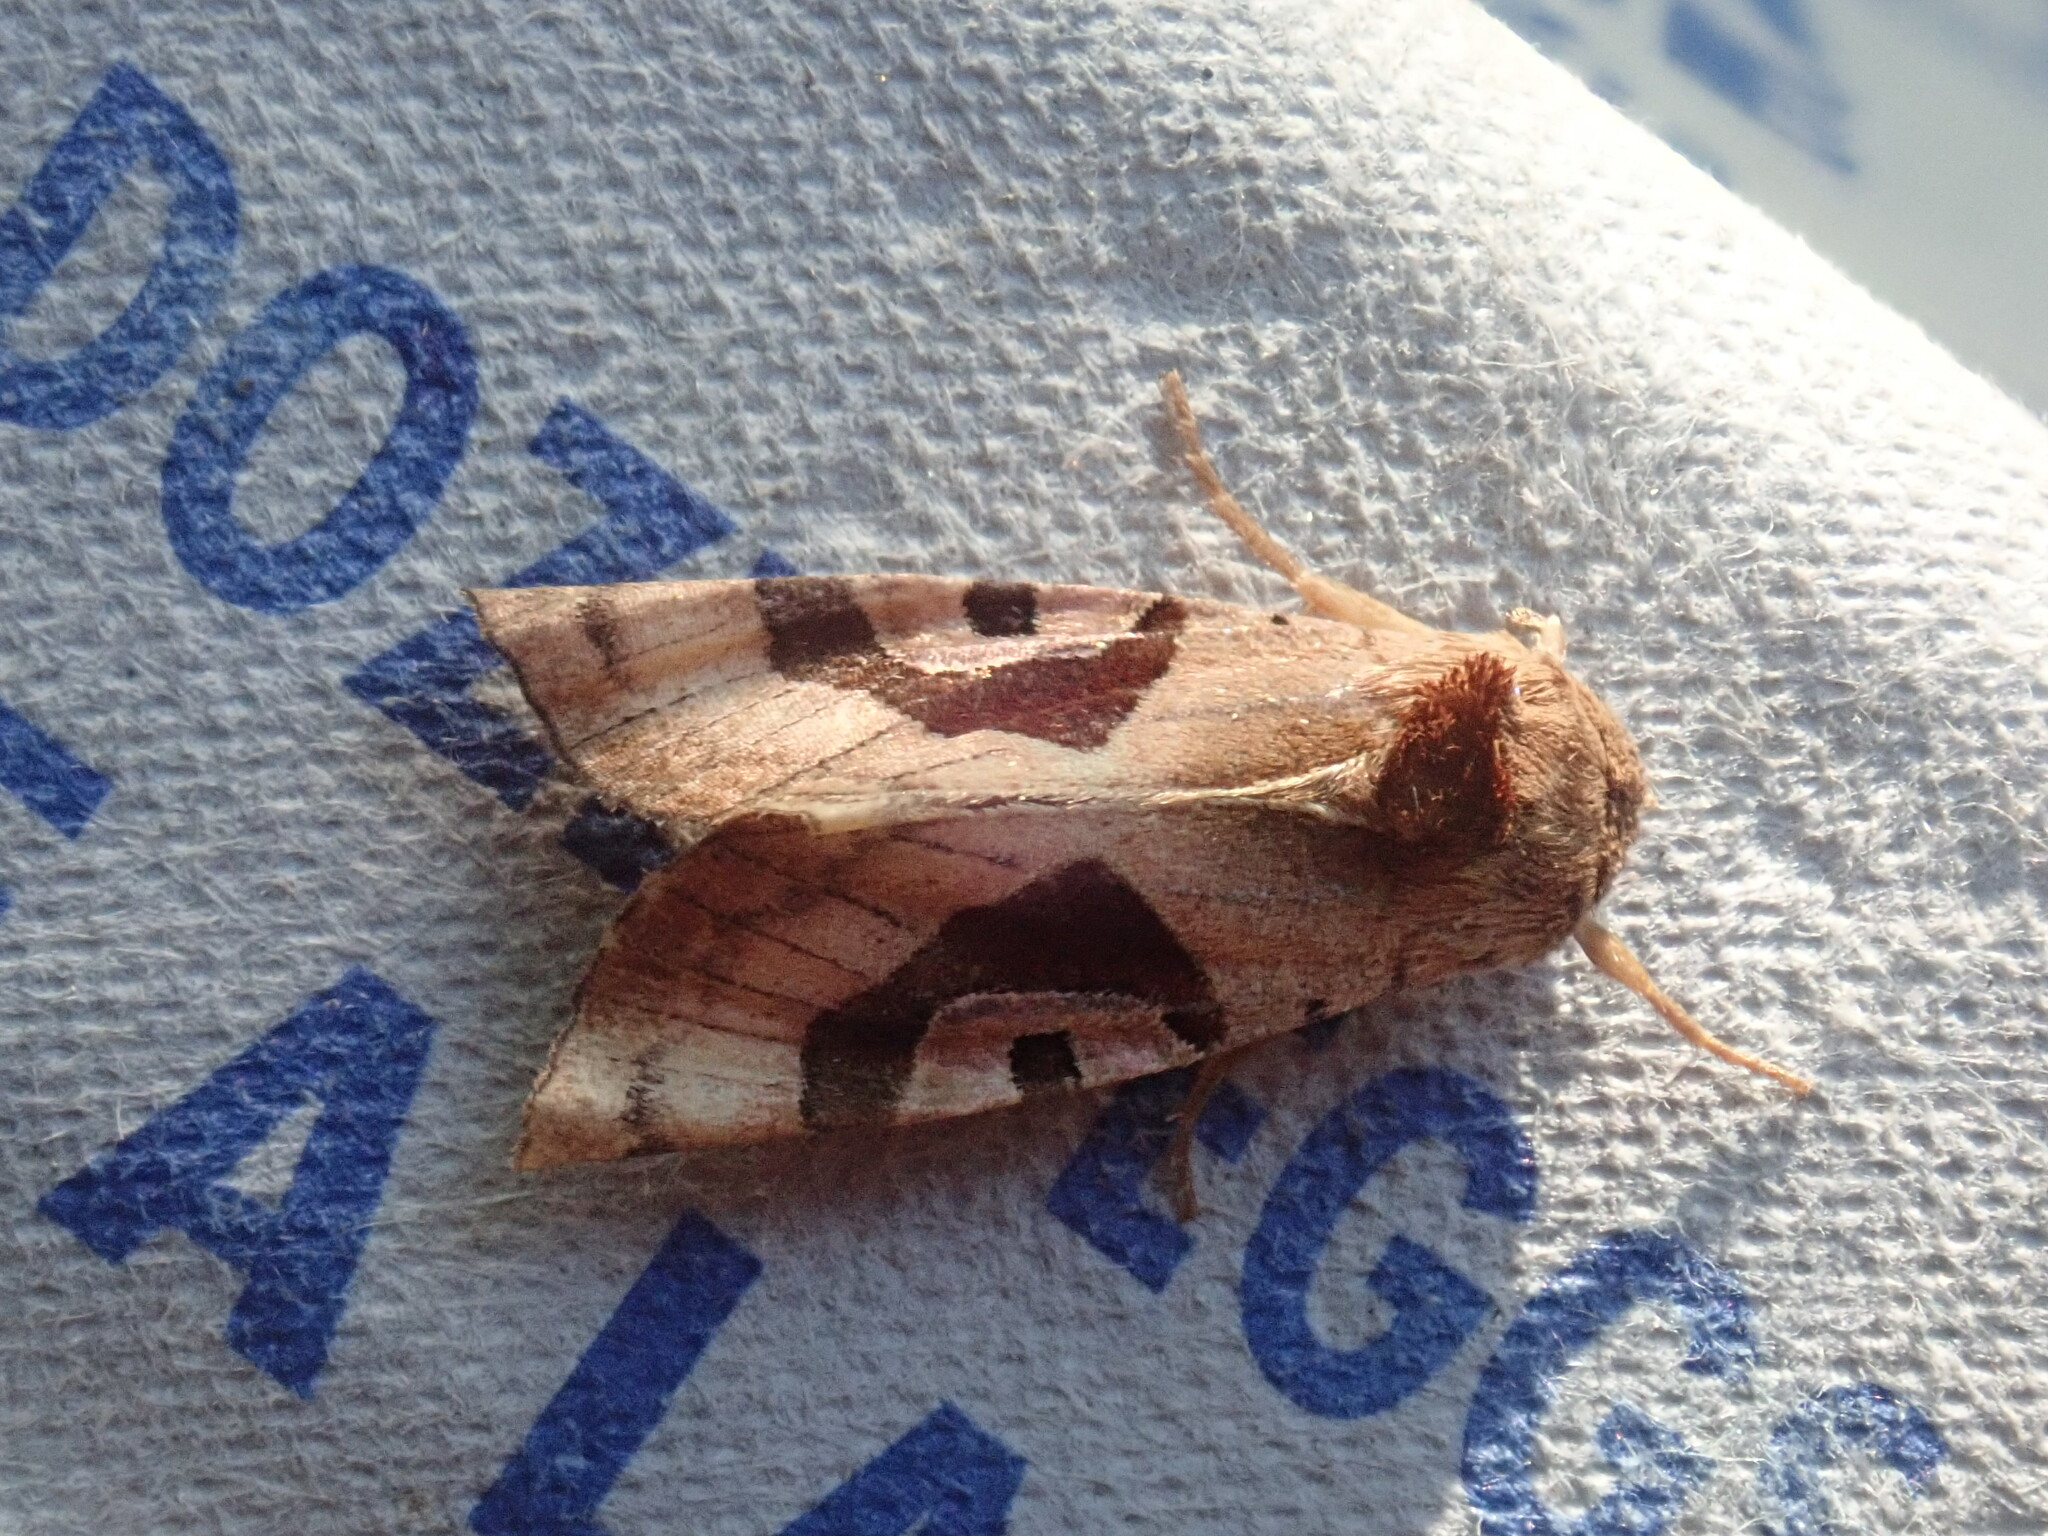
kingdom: Animalia
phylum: Arthropoda
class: Insecta
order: Lepidoptera
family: Noctuidae
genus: Conservula
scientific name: Conservula anodonta
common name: Sharp angle shades
